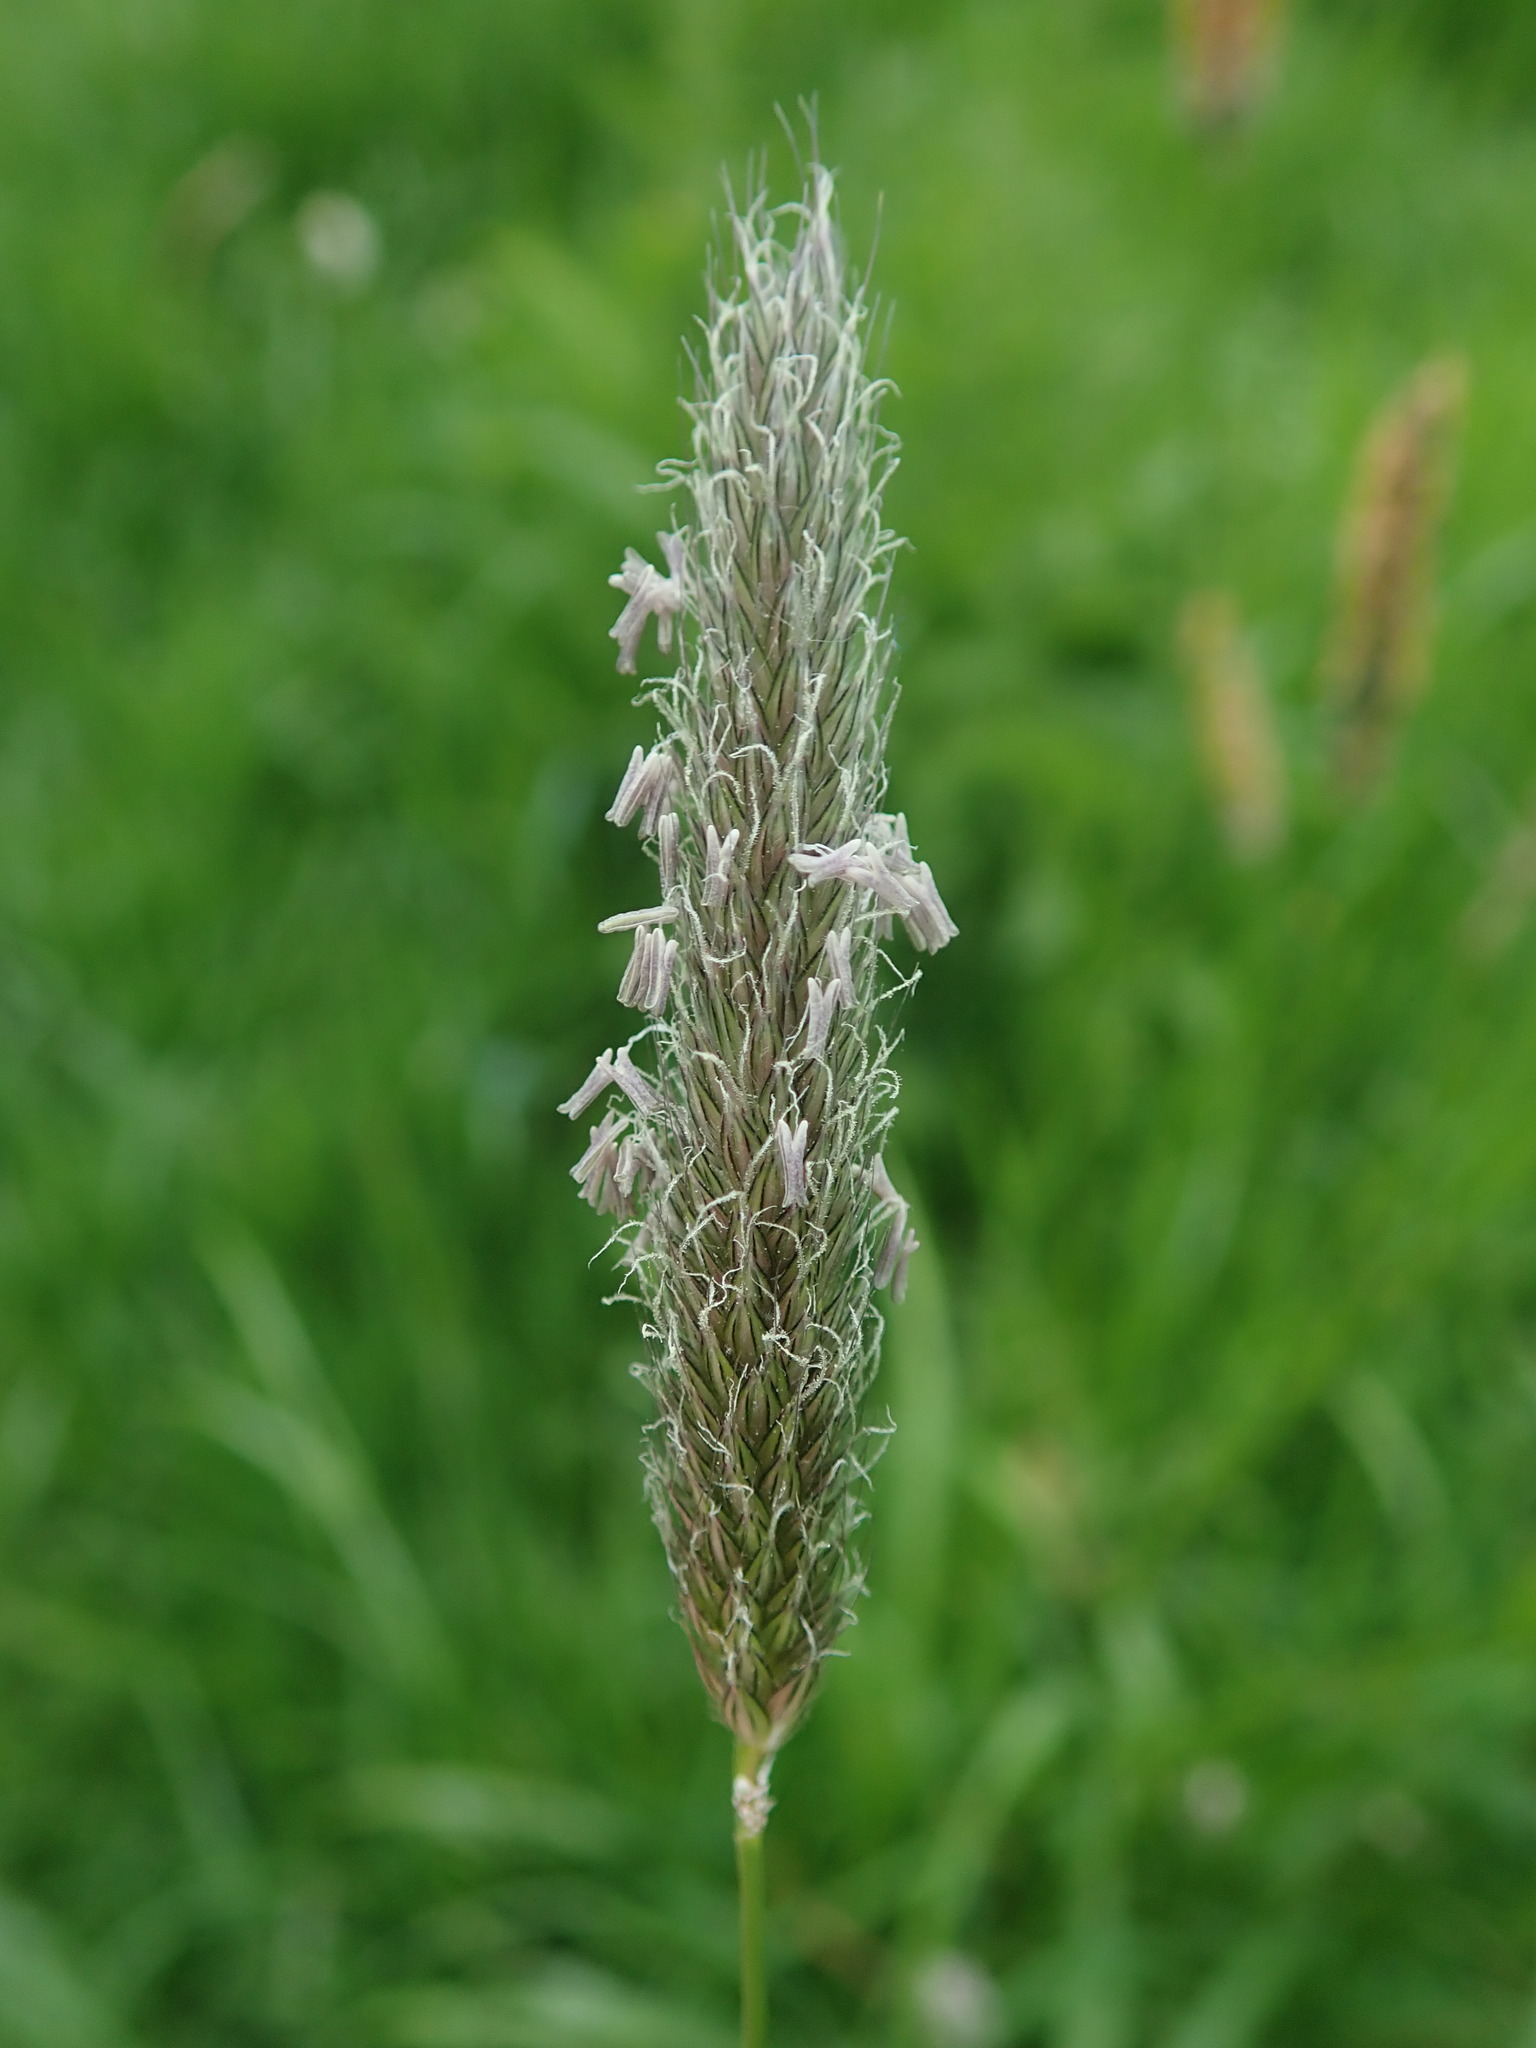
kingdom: Plantae
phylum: Tracheophyta
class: Liliopsida
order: Poales
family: Poaceae
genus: Alopecurus
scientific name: Alopecurus pratensis
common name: Meadow foxtail
